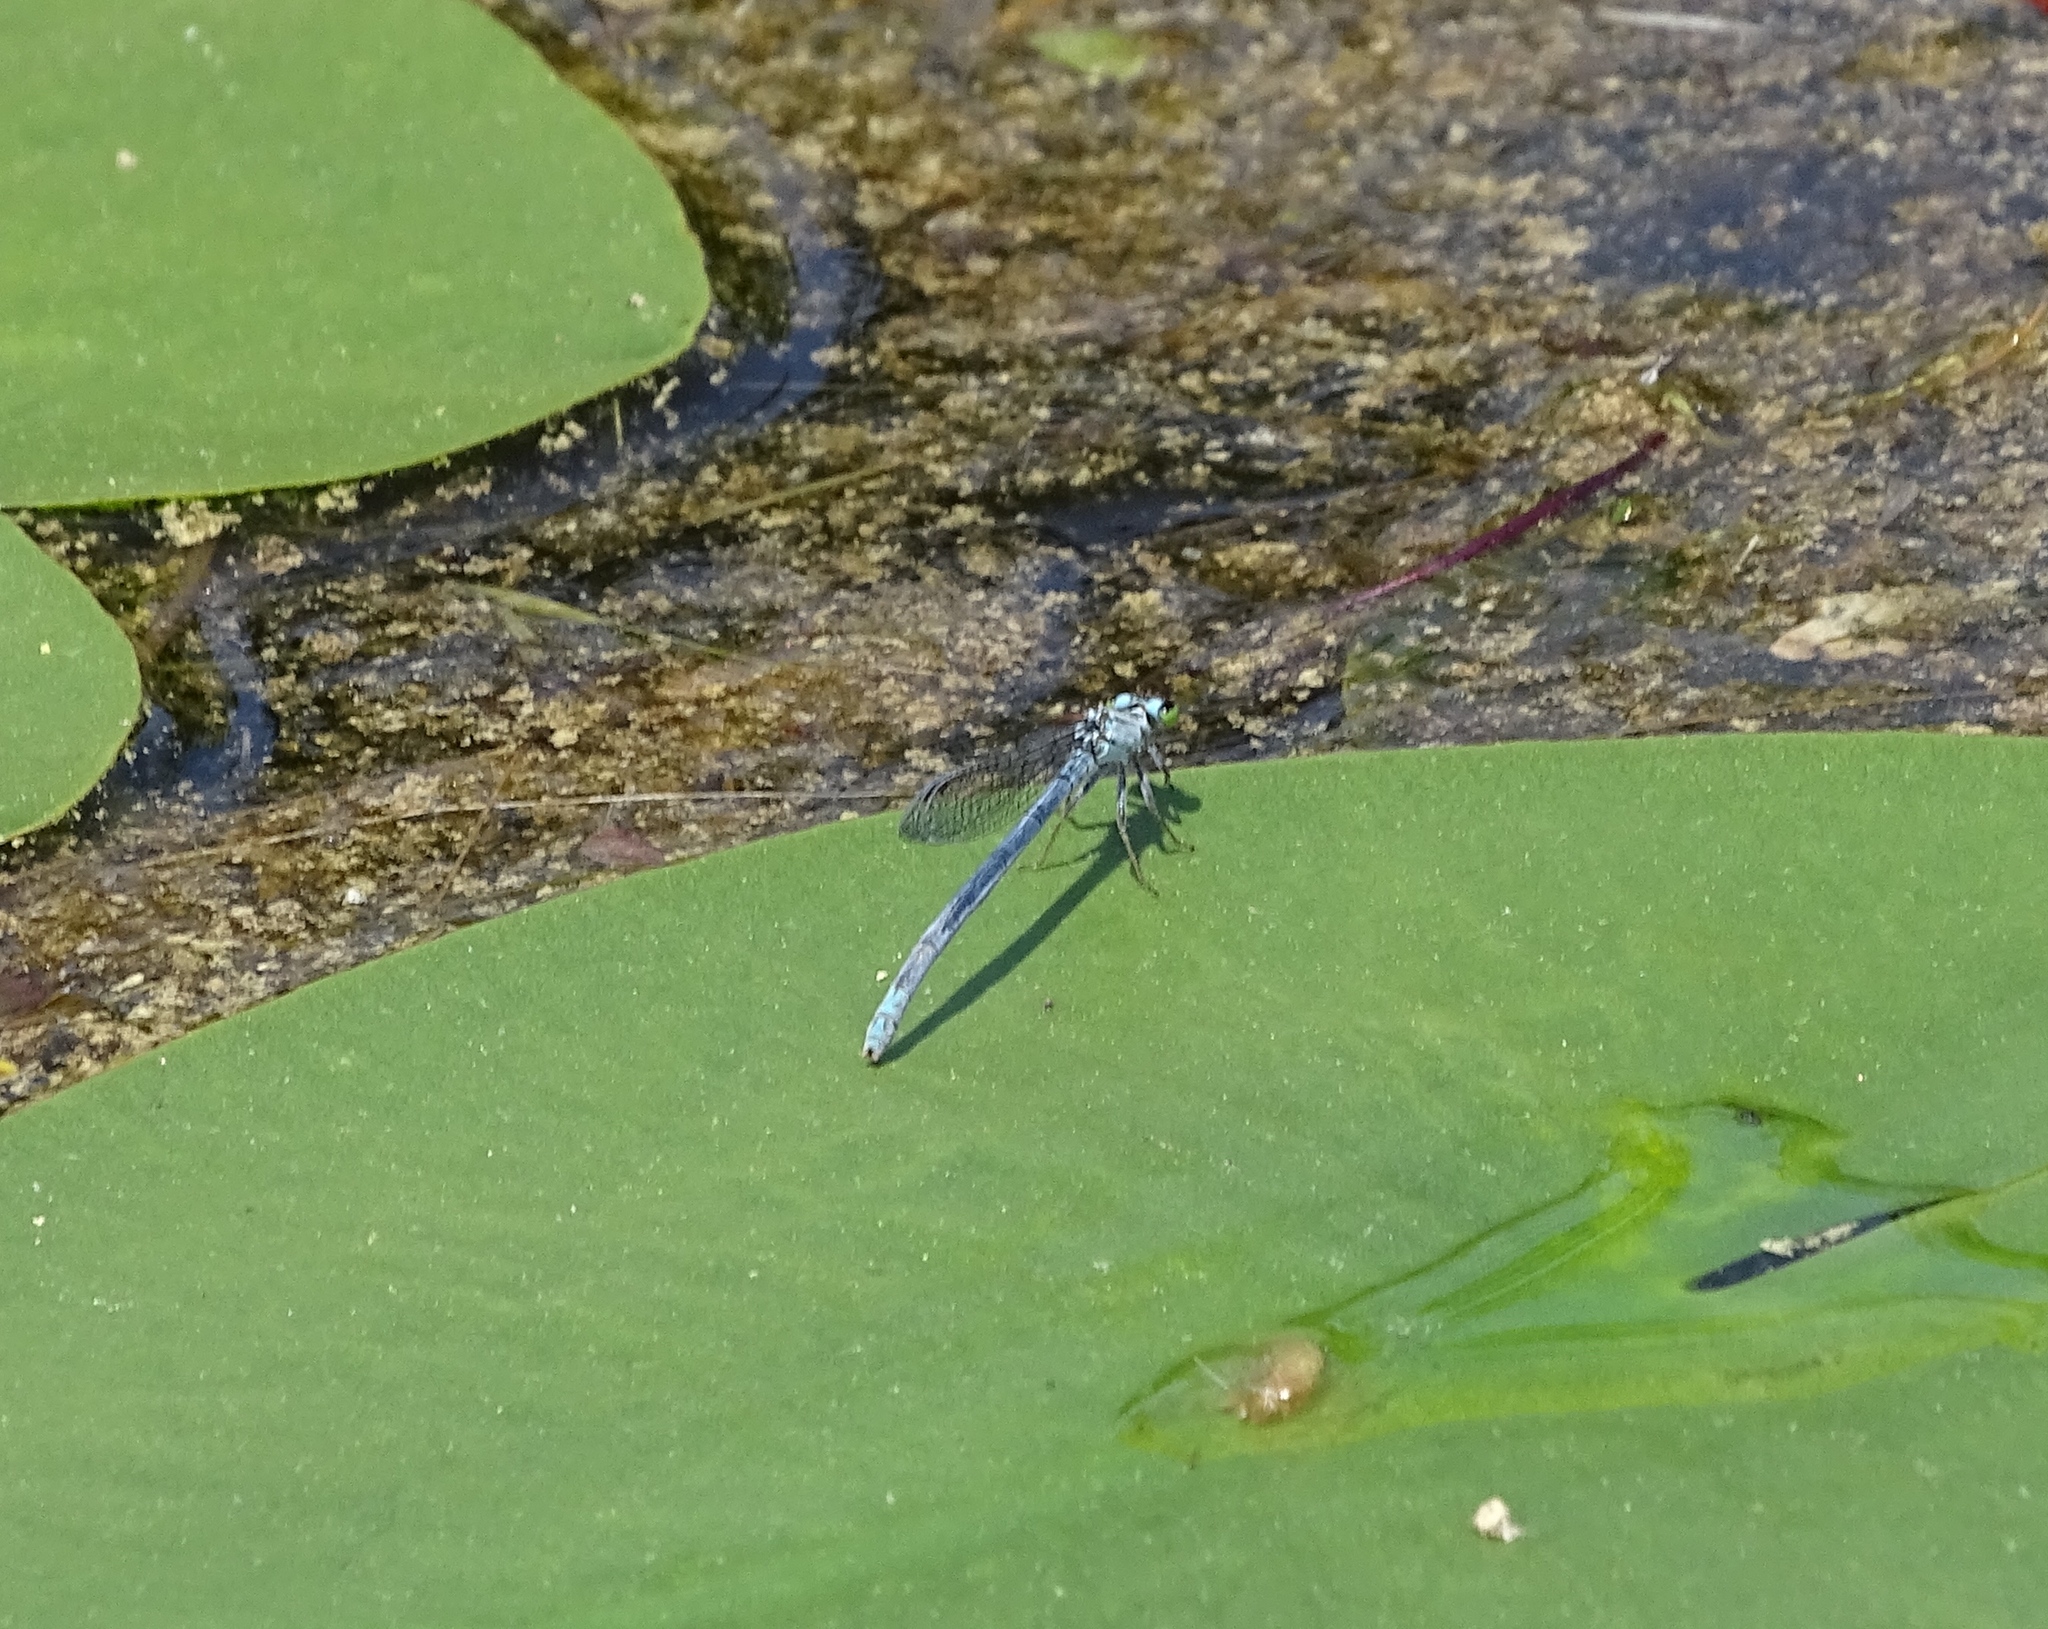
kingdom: Animalia
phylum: Arthropoda
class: Insecta
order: Odonata
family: Coenagrionidae
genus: Ischnura
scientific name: Ischnura kellicotti
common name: Lilypad forktail
